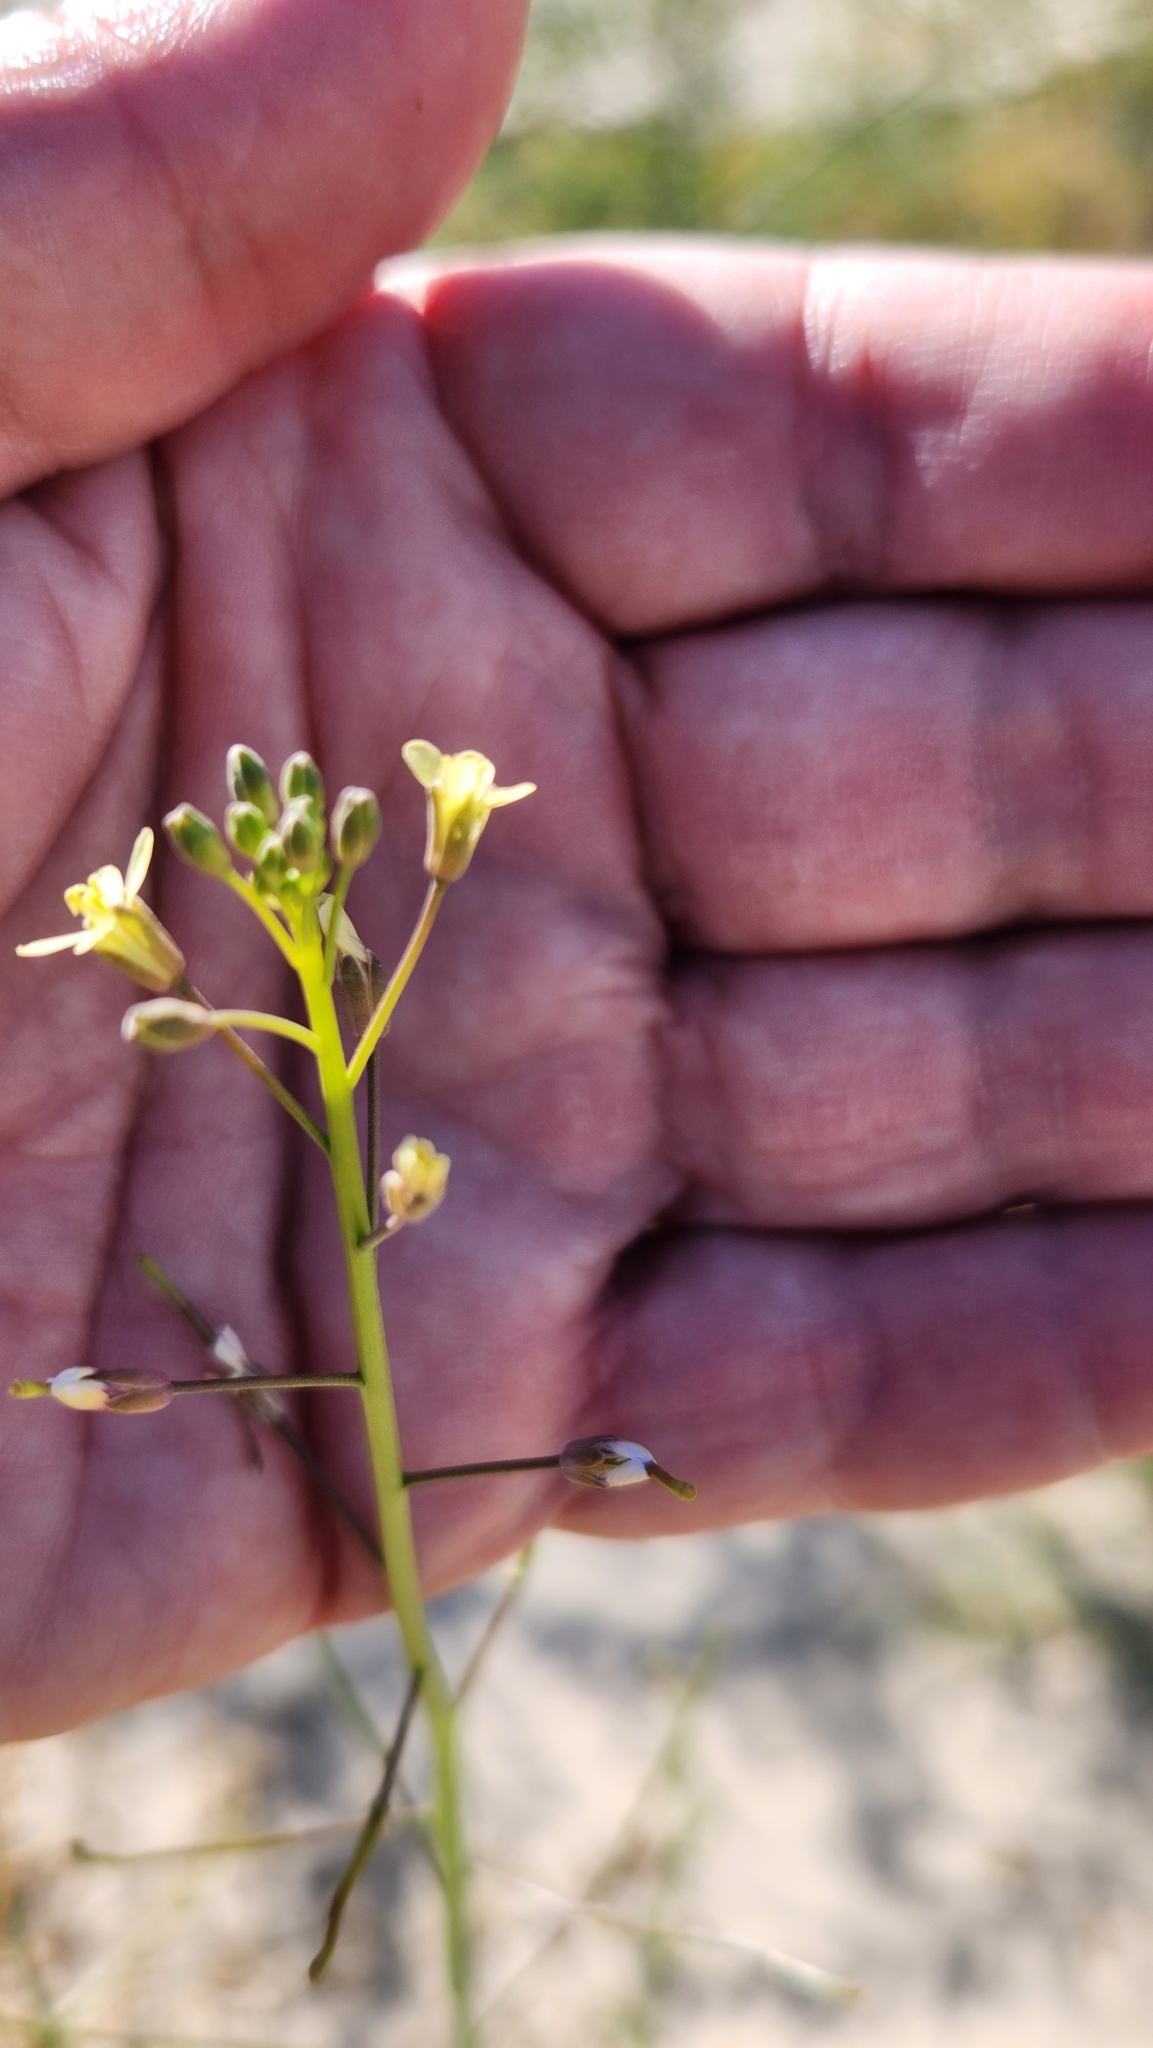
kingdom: Plantae
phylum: Tracheophyta
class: Magnoliopsida
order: Brassicales
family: Brassicaceae
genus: Brassica
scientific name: Brassica tournefortii
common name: Pale cabbage
